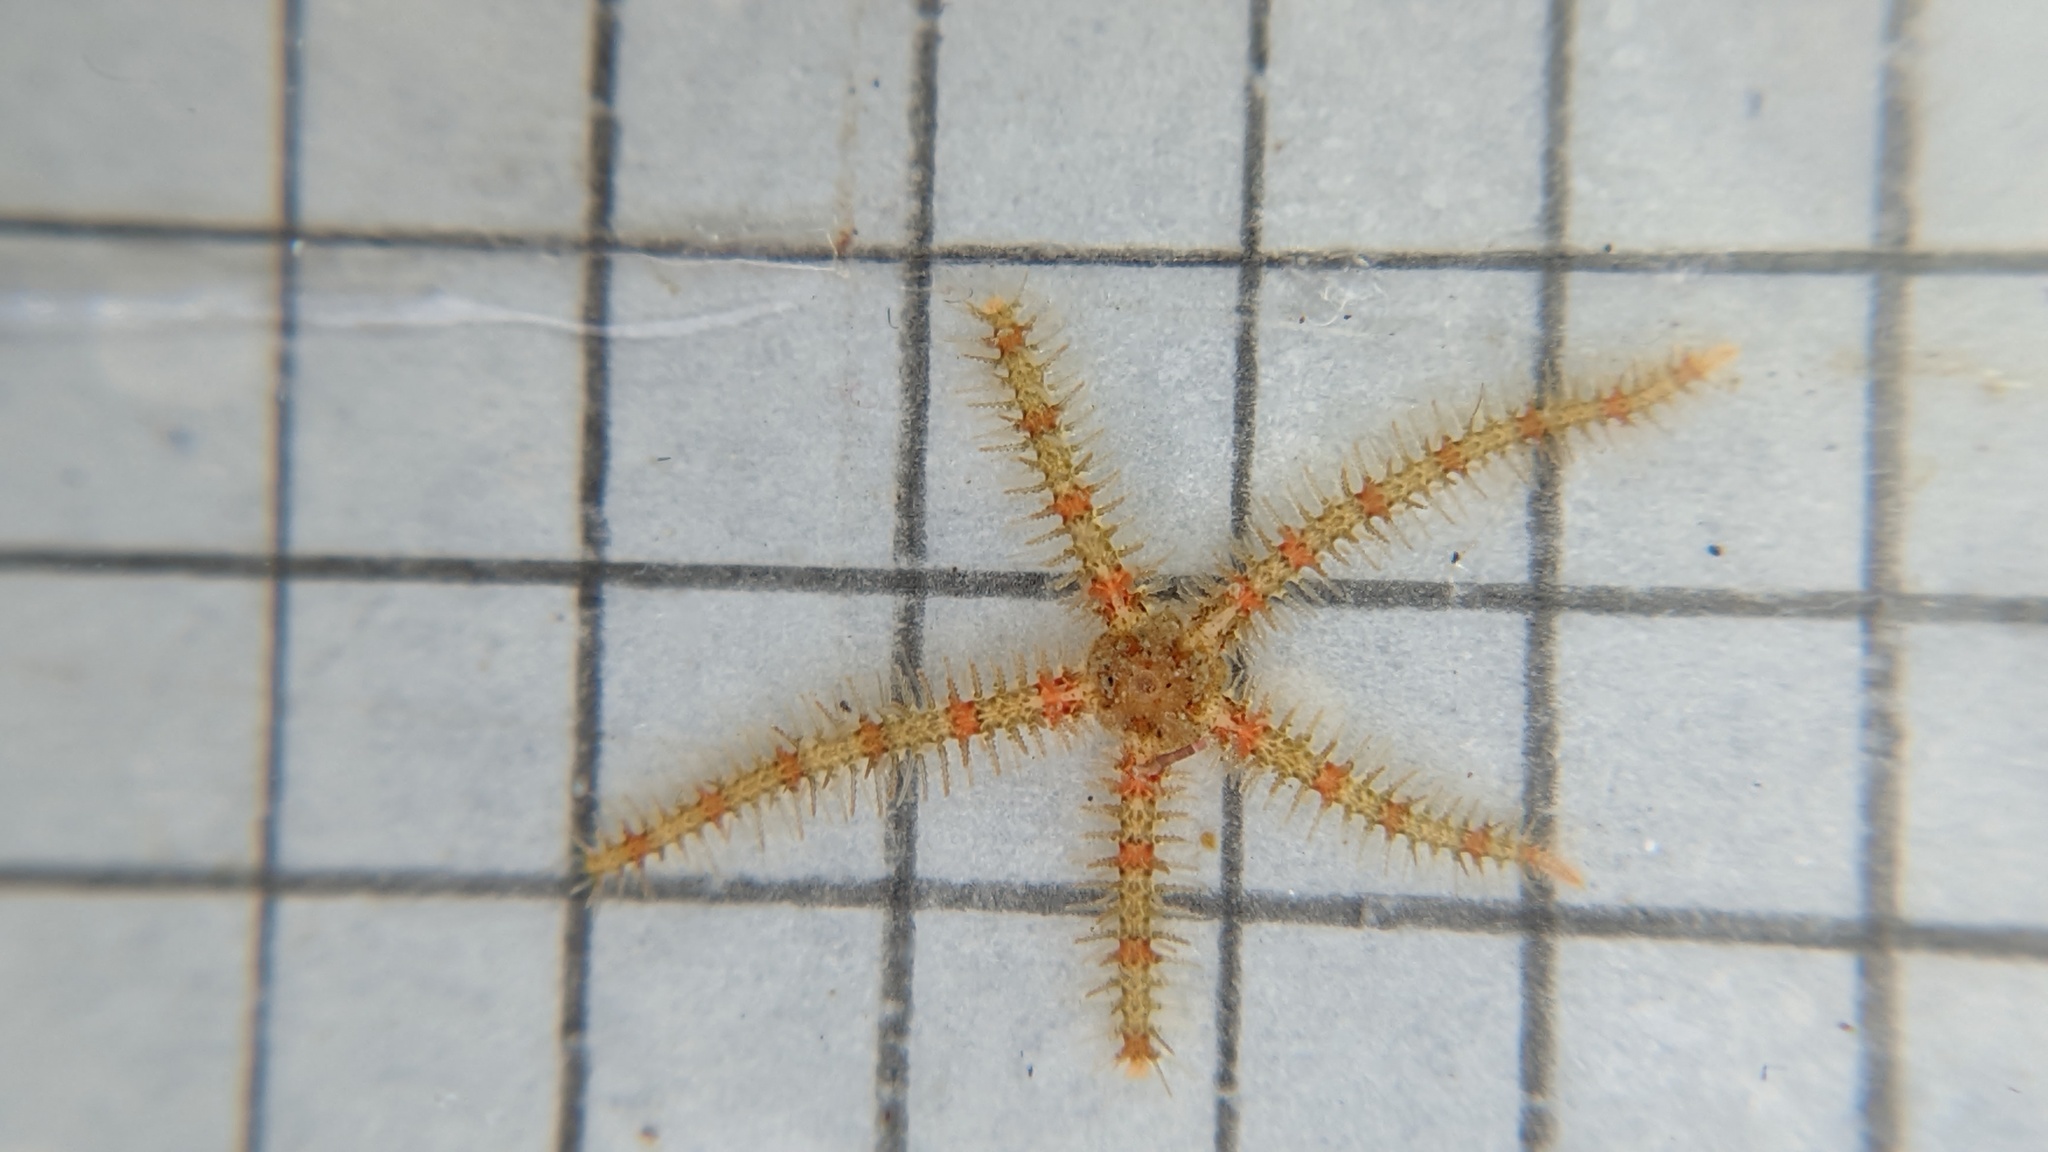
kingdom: Animalia
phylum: Echinodermata
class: Ophiuroidea
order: Amphilepidida
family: Ophiotrichidae
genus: Ophiothrix
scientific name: Ophiothrix spiculata
